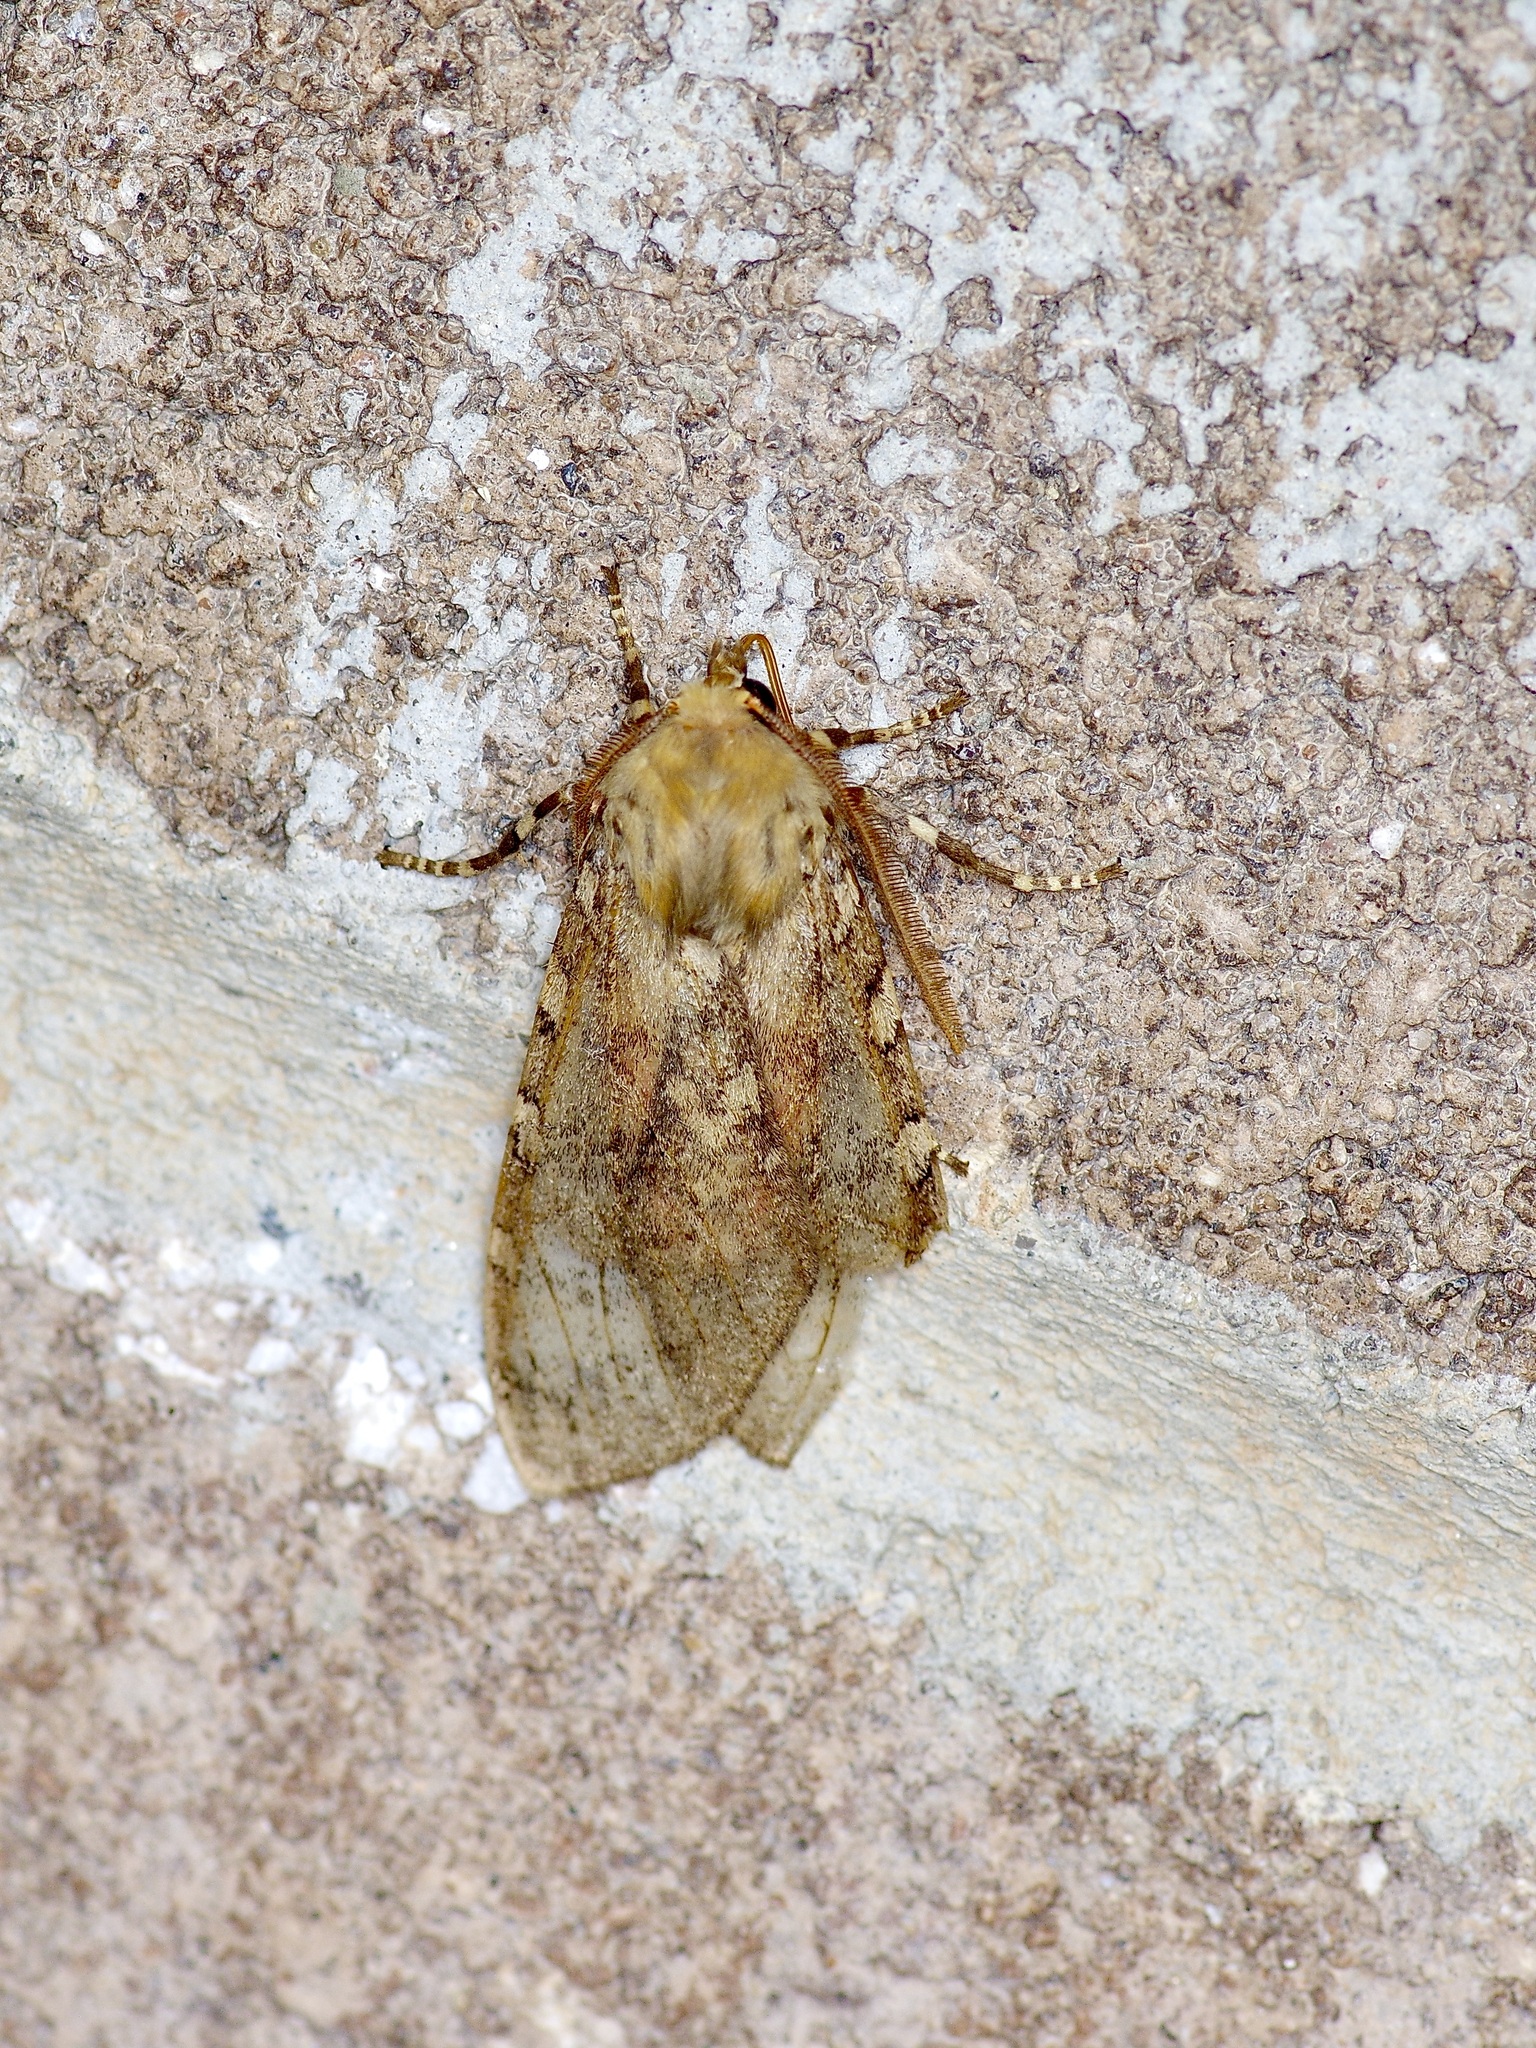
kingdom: Animalia
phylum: Arthropoda
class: Insecta
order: Lepidoptera
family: Erebidae
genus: Hemihyalea
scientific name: Hemihyalea labecula
